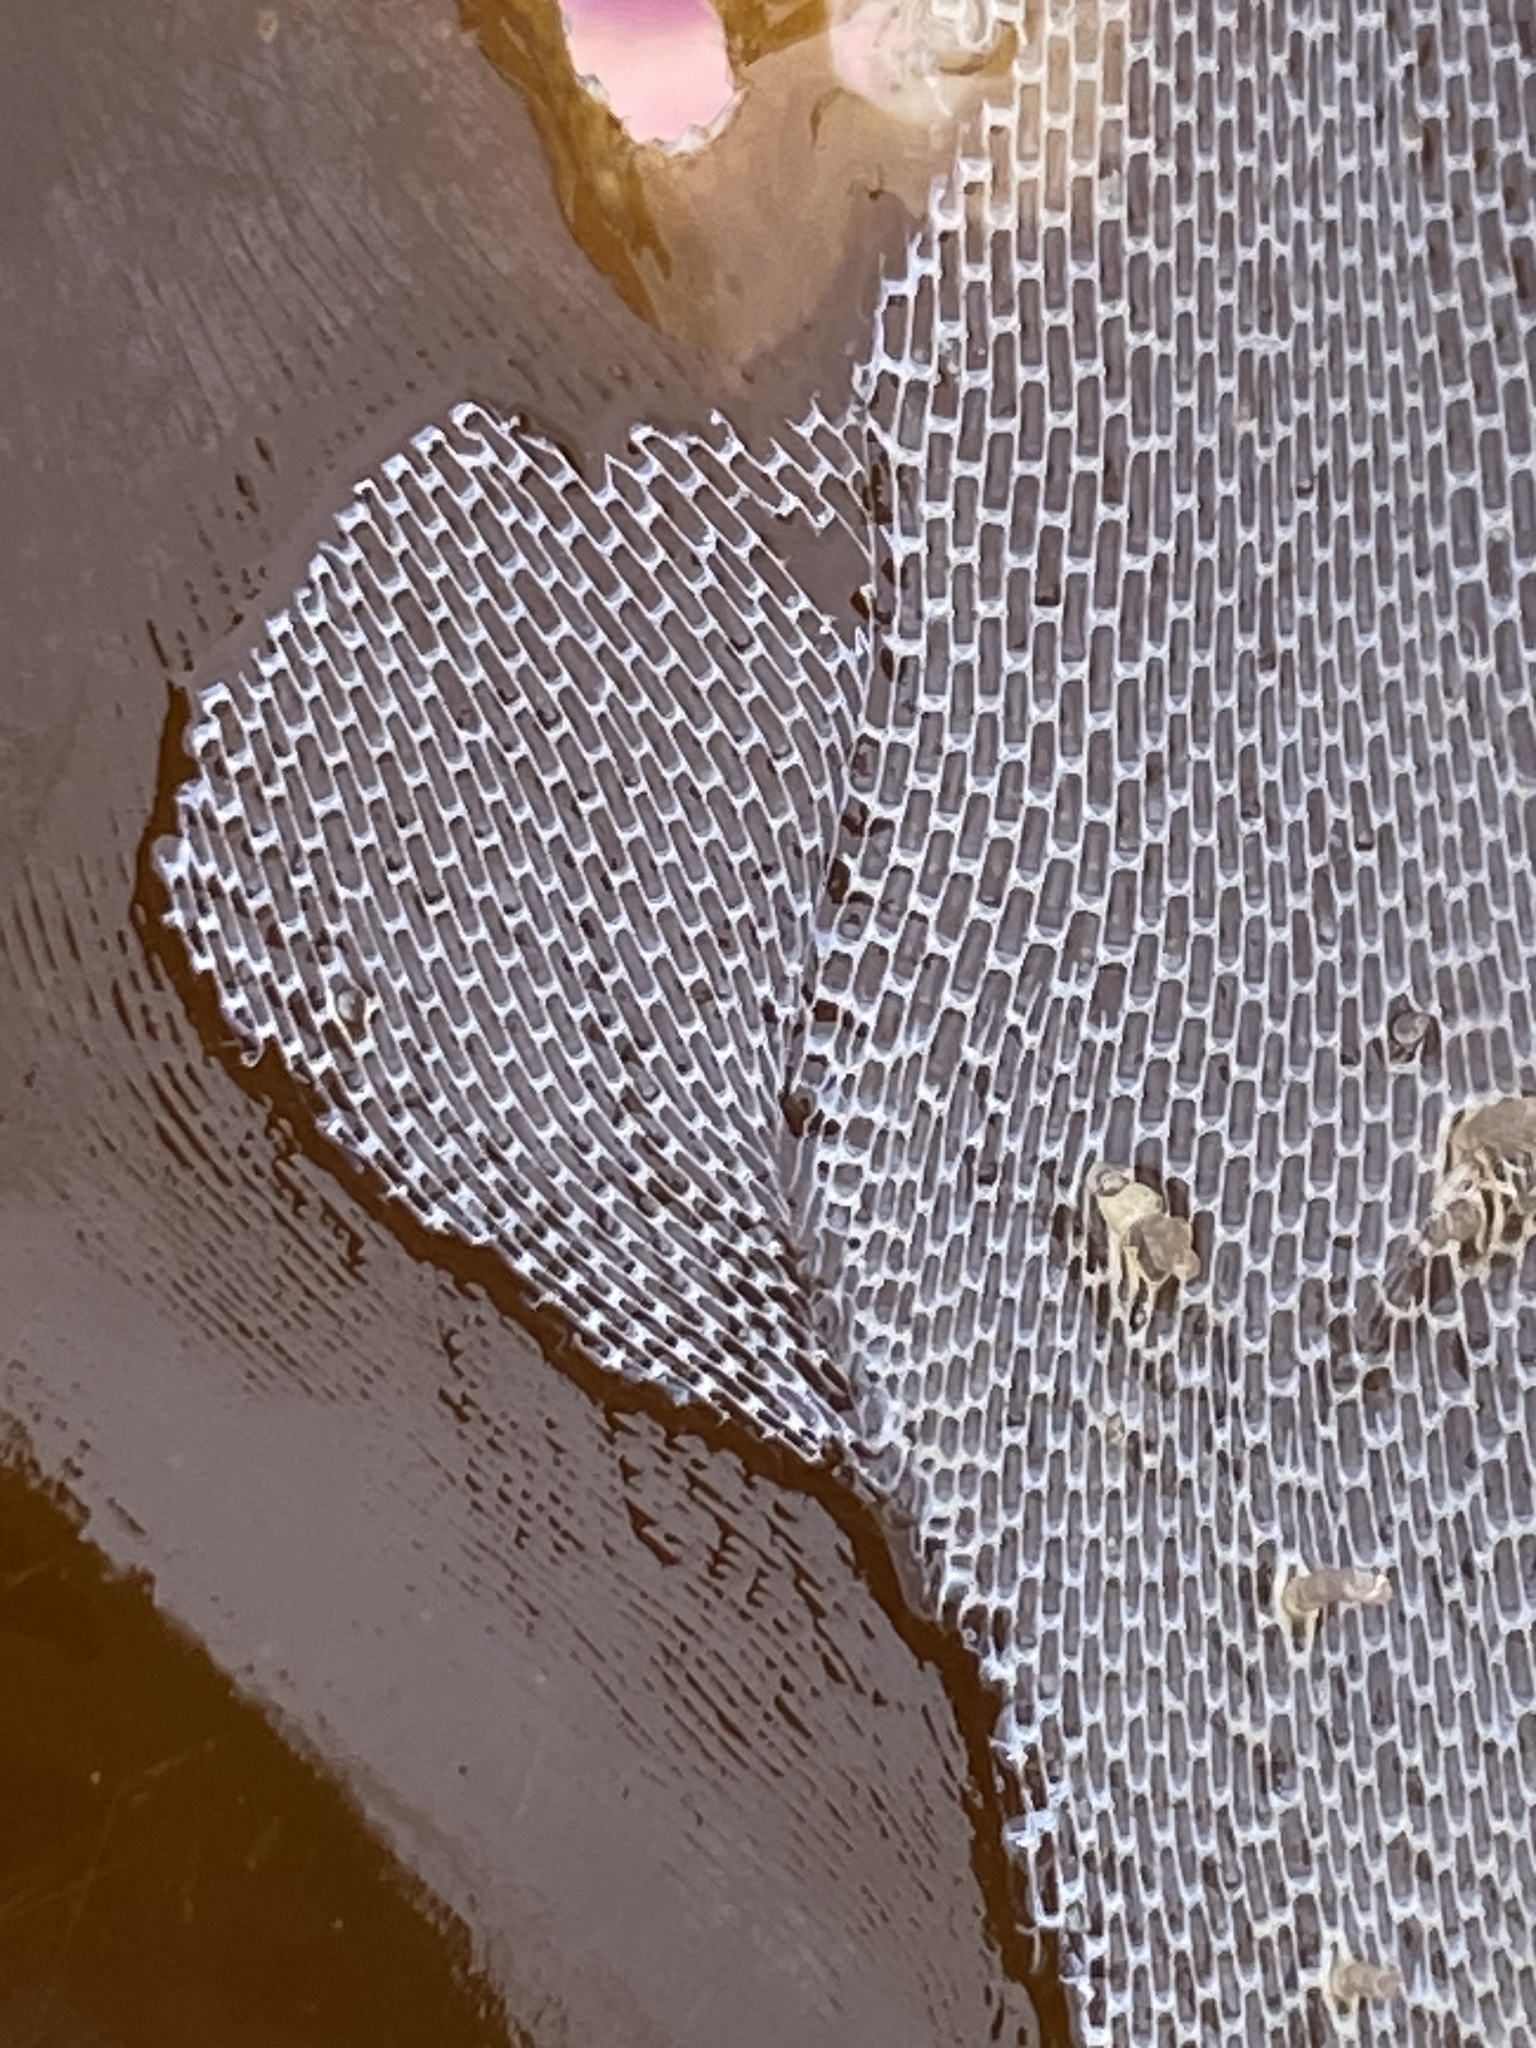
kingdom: Animalia
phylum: Bryozoa
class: Gymnolaemata
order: Cheilostomatida
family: Membraniporidae
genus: Membranipora
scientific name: Membranipora membranacea
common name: Sea mat
